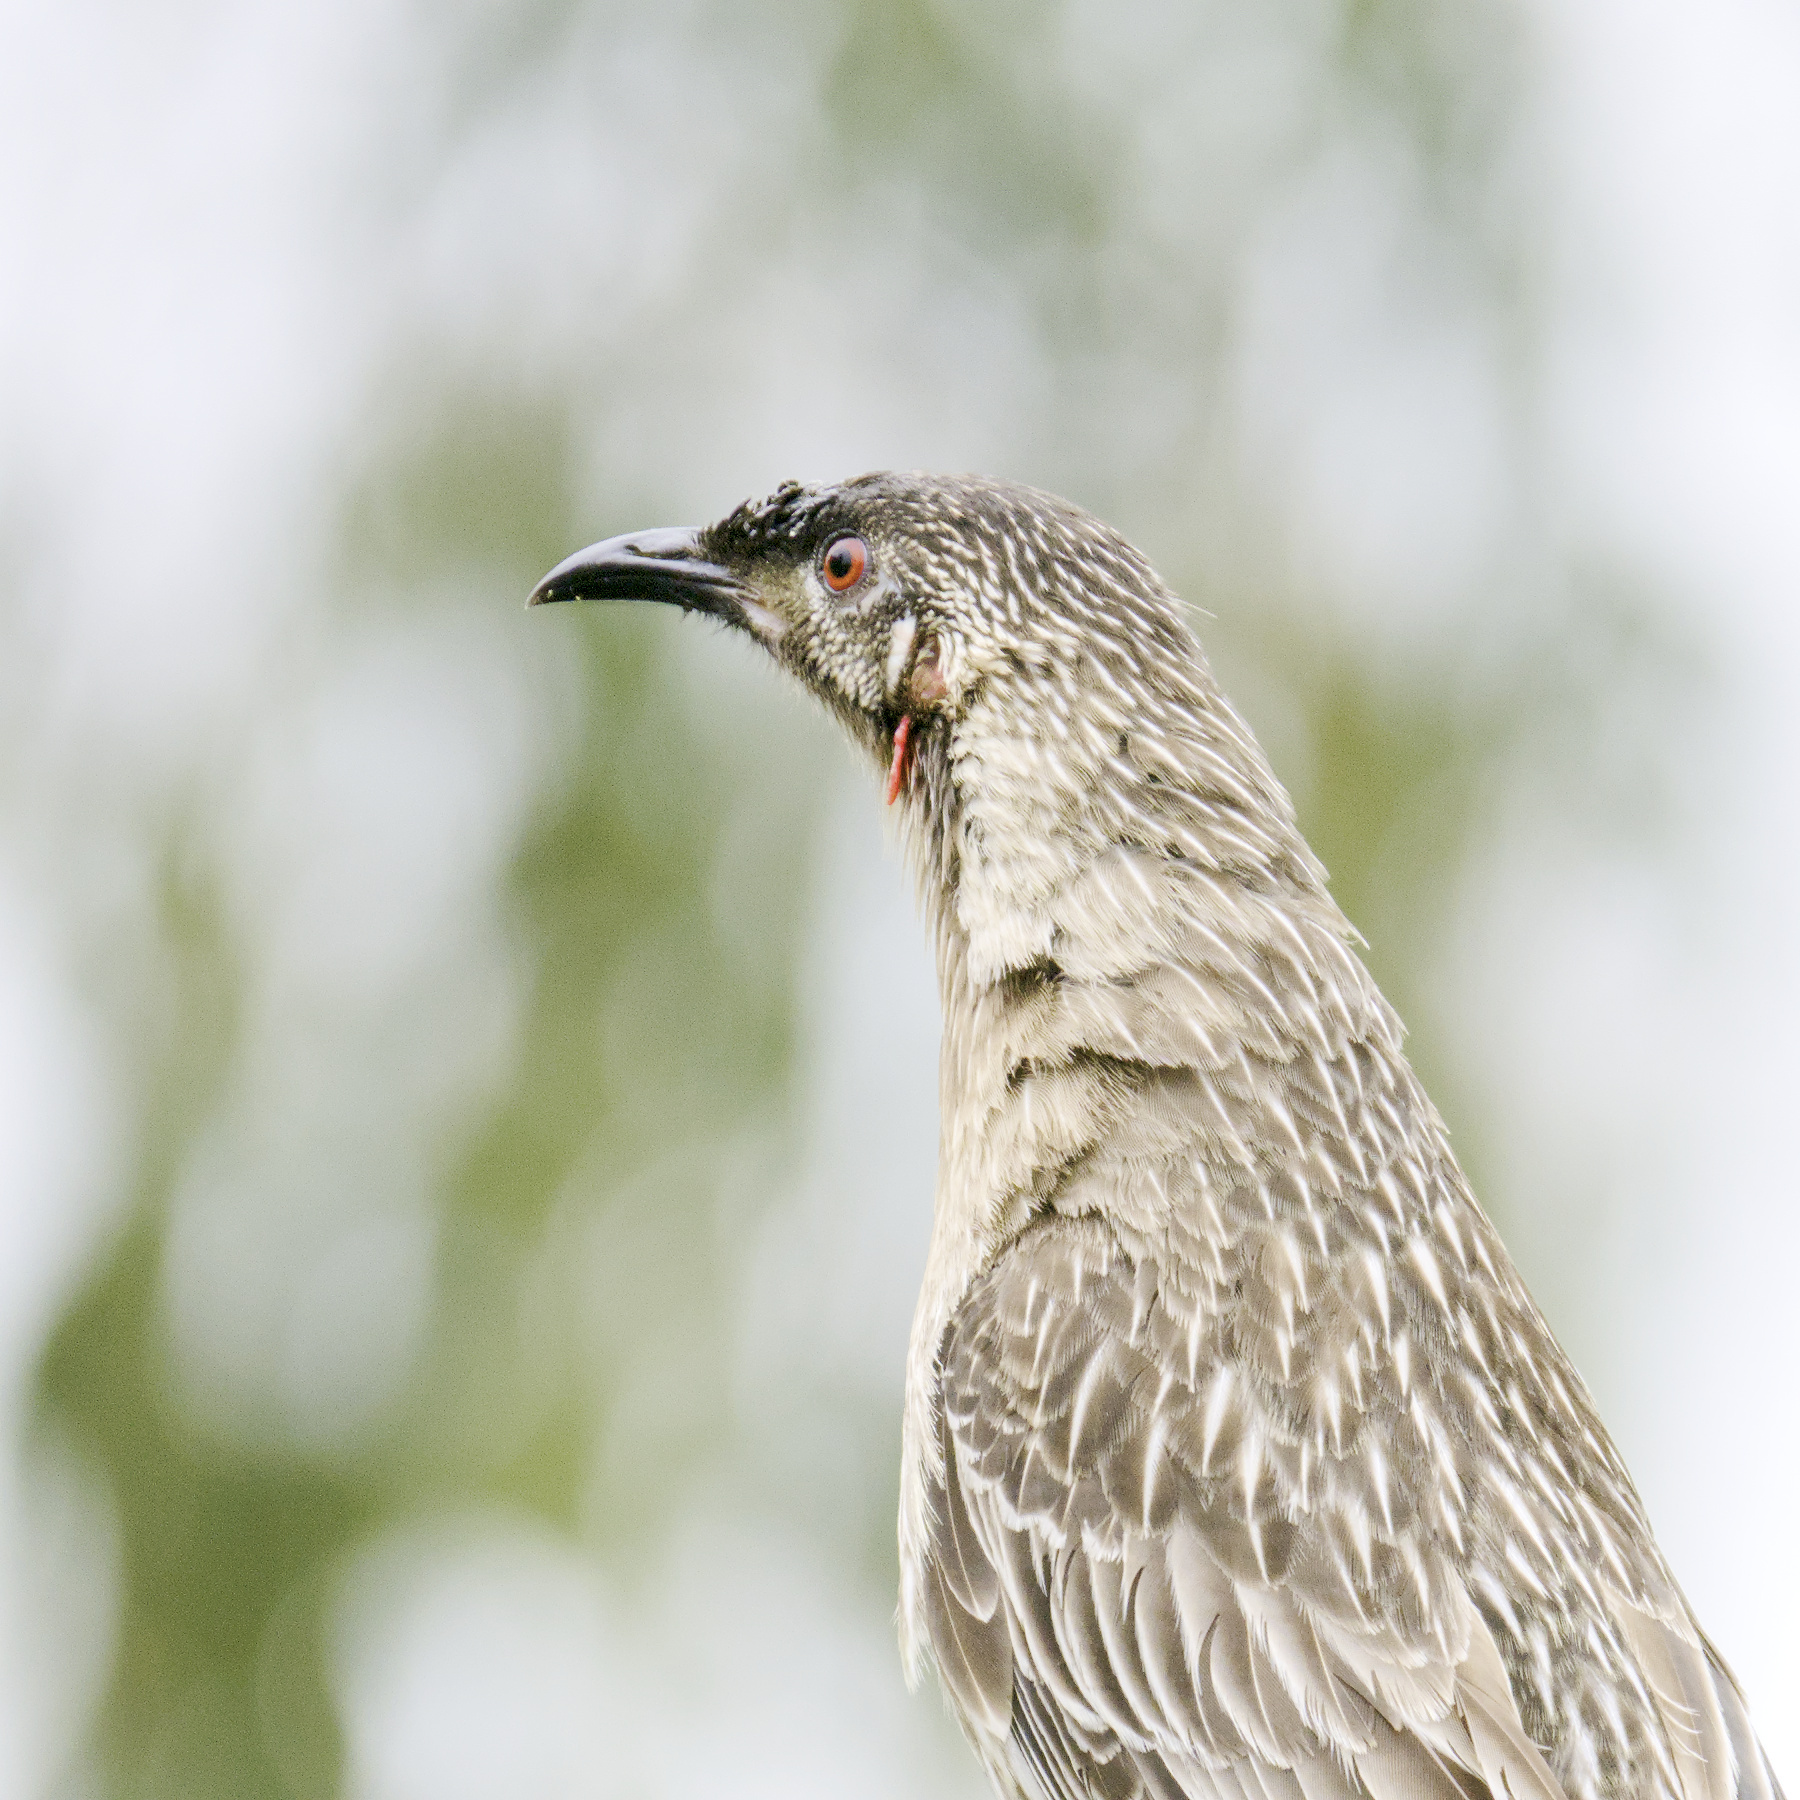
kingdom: Animalia
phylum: Chordata
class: Aves
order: Passeriformes
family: Meliphagidae
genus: Anthochaera
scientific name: Anthochaera carunculata
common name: Red wattlebird
